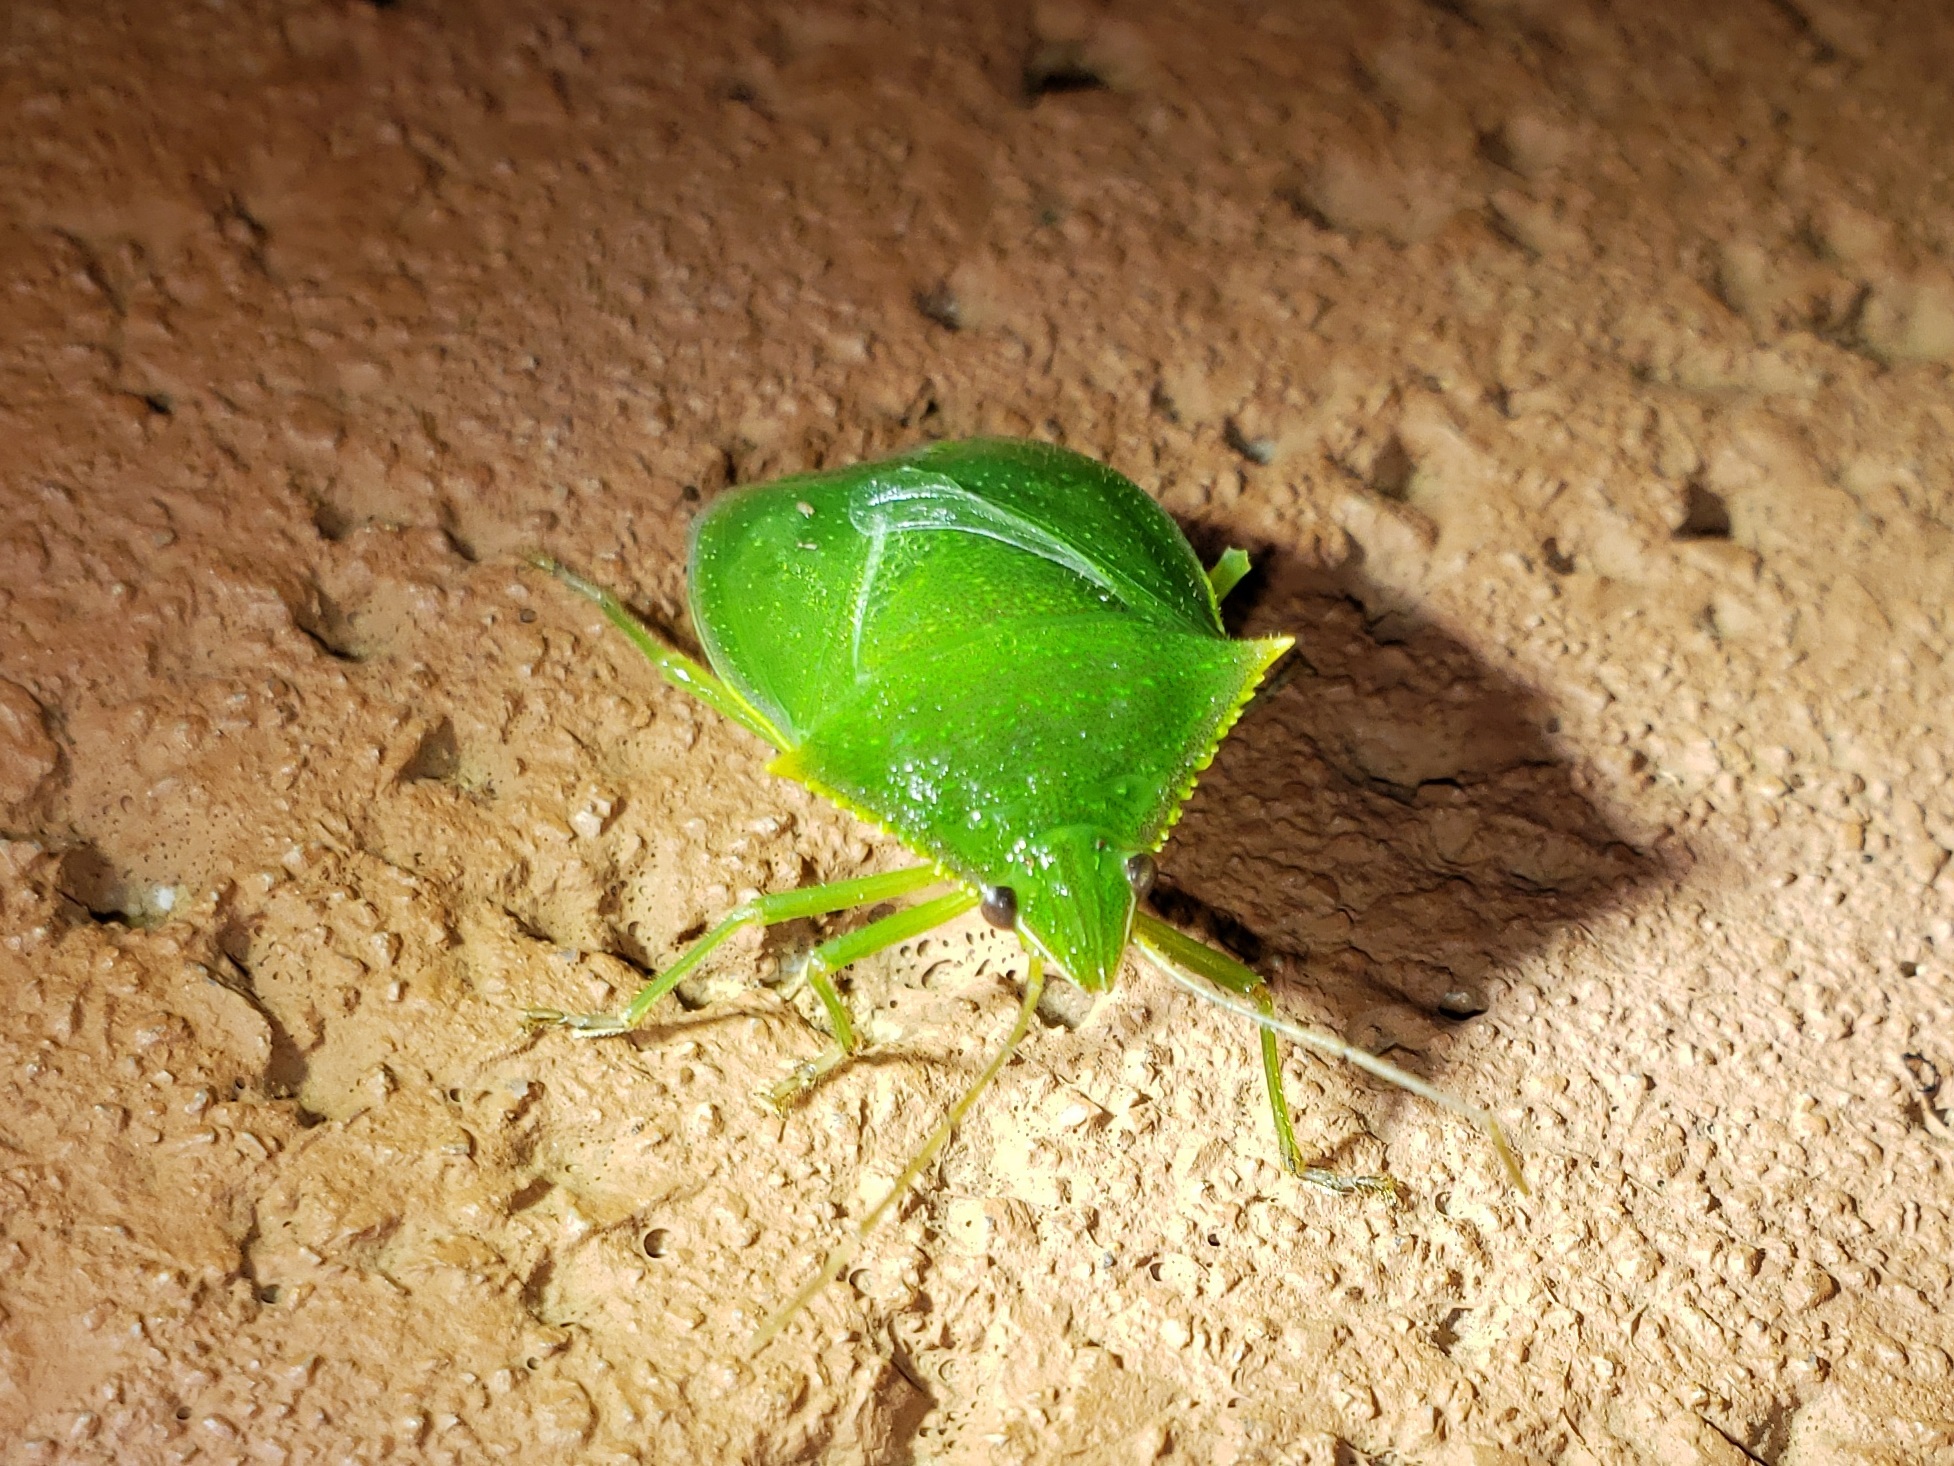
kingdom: Animalia
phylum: Arthropoda
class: Insecta
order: Hemiptera
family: Pentatomidae
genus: Loxa
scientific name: Loxa virescens
